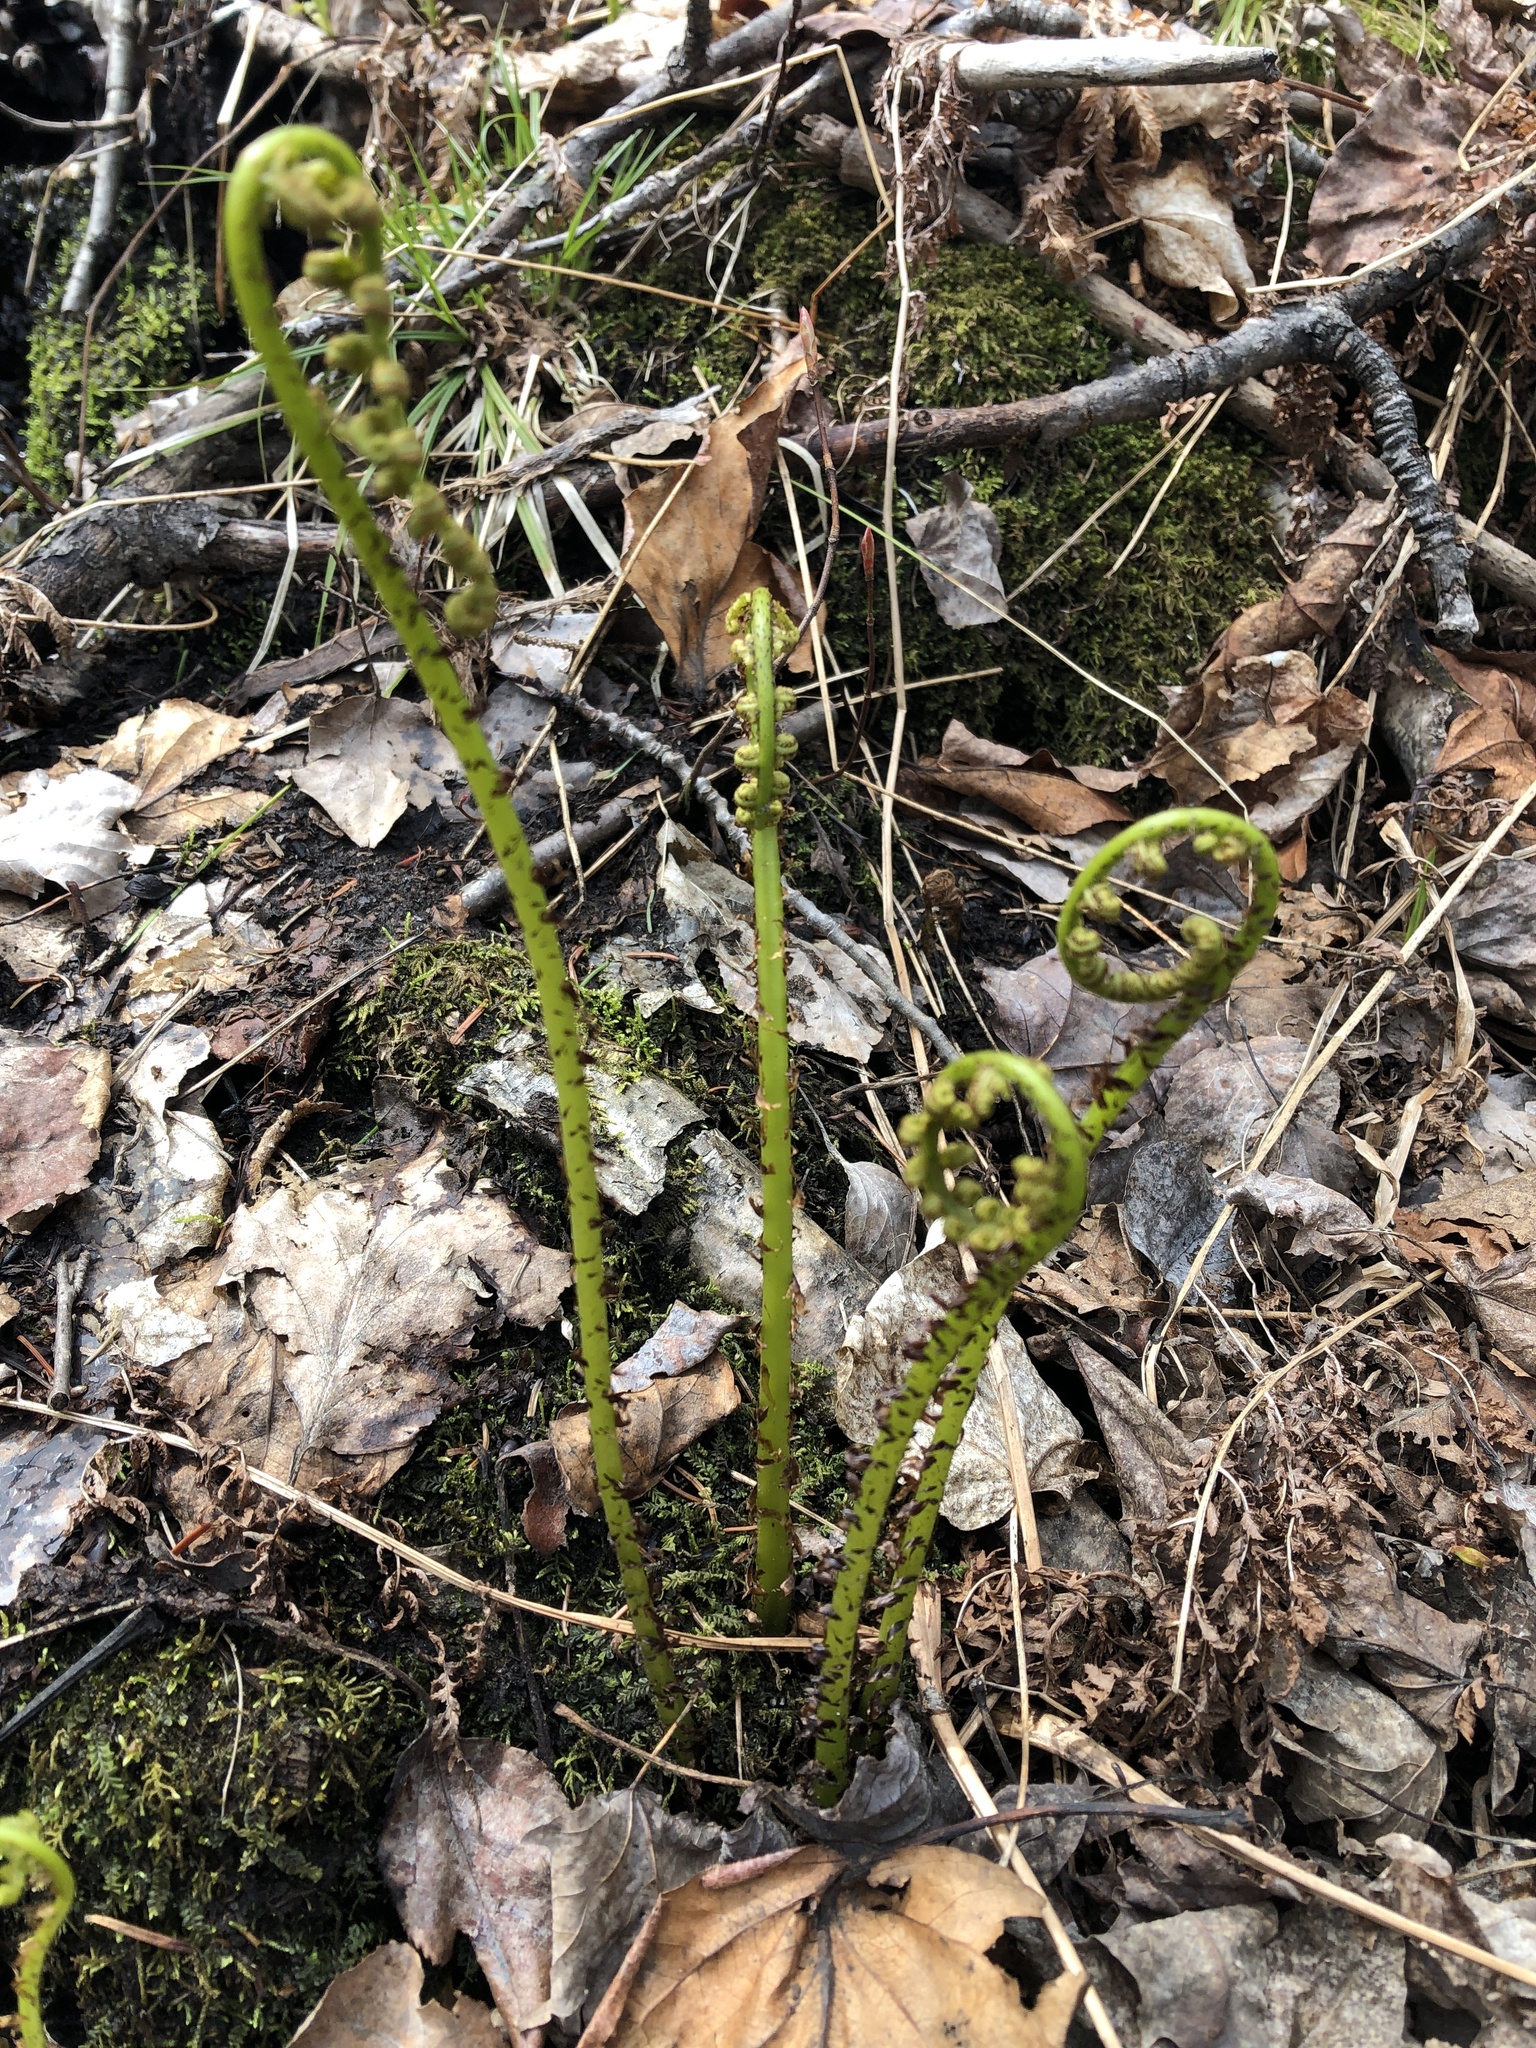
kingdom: Plantae
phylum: Tracheophyta
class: Polypodiopsida
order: Polypodiales
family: Athyriaceae
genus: Athyrium
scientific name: Athyrium angustum
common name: Northern lady fern
